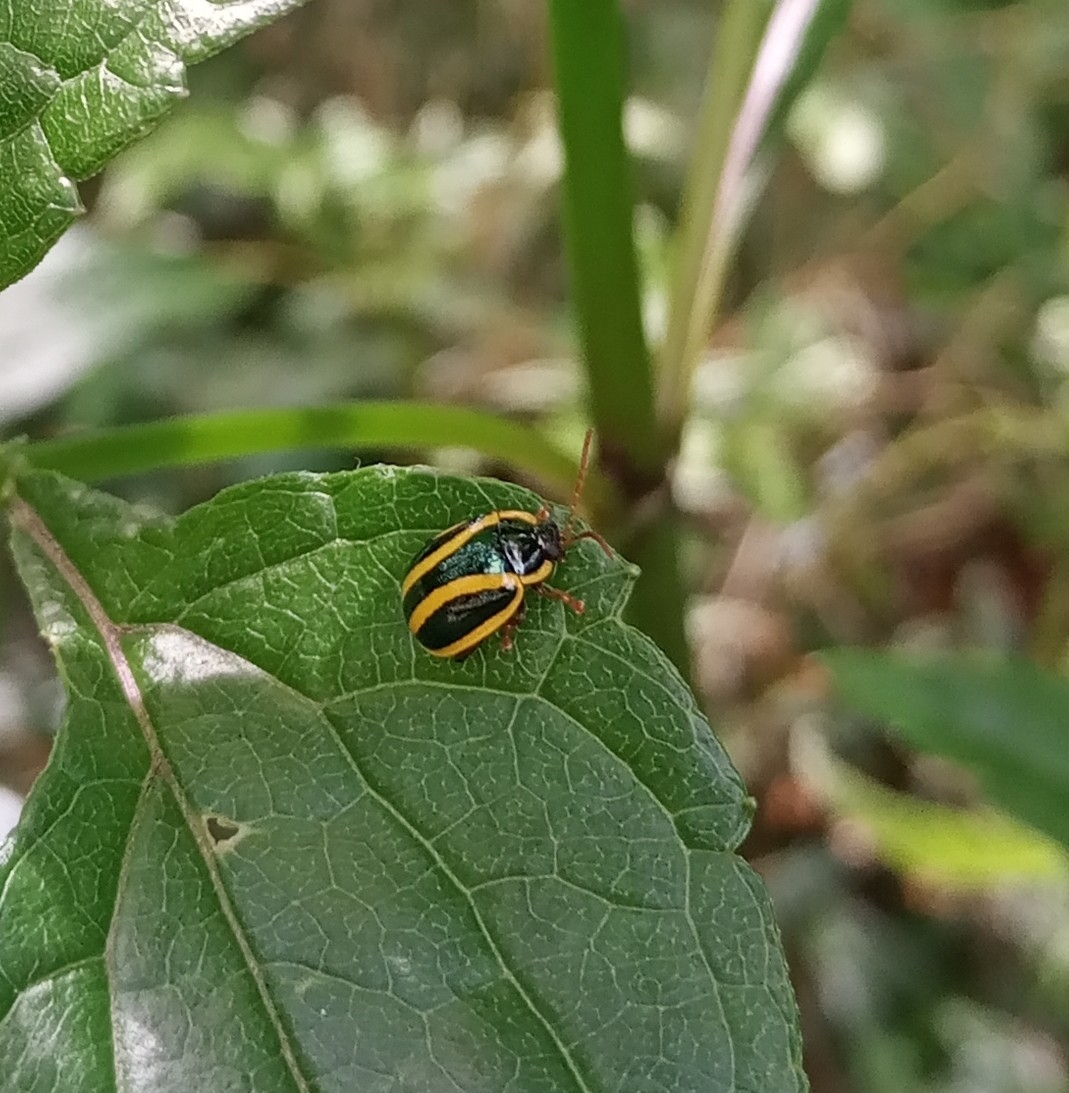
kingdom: Animalia
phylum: Arthropoda
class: Insecta
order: Coleoptera
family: Chrysomelidae
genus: Alagoasa
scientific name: Alagoasa
